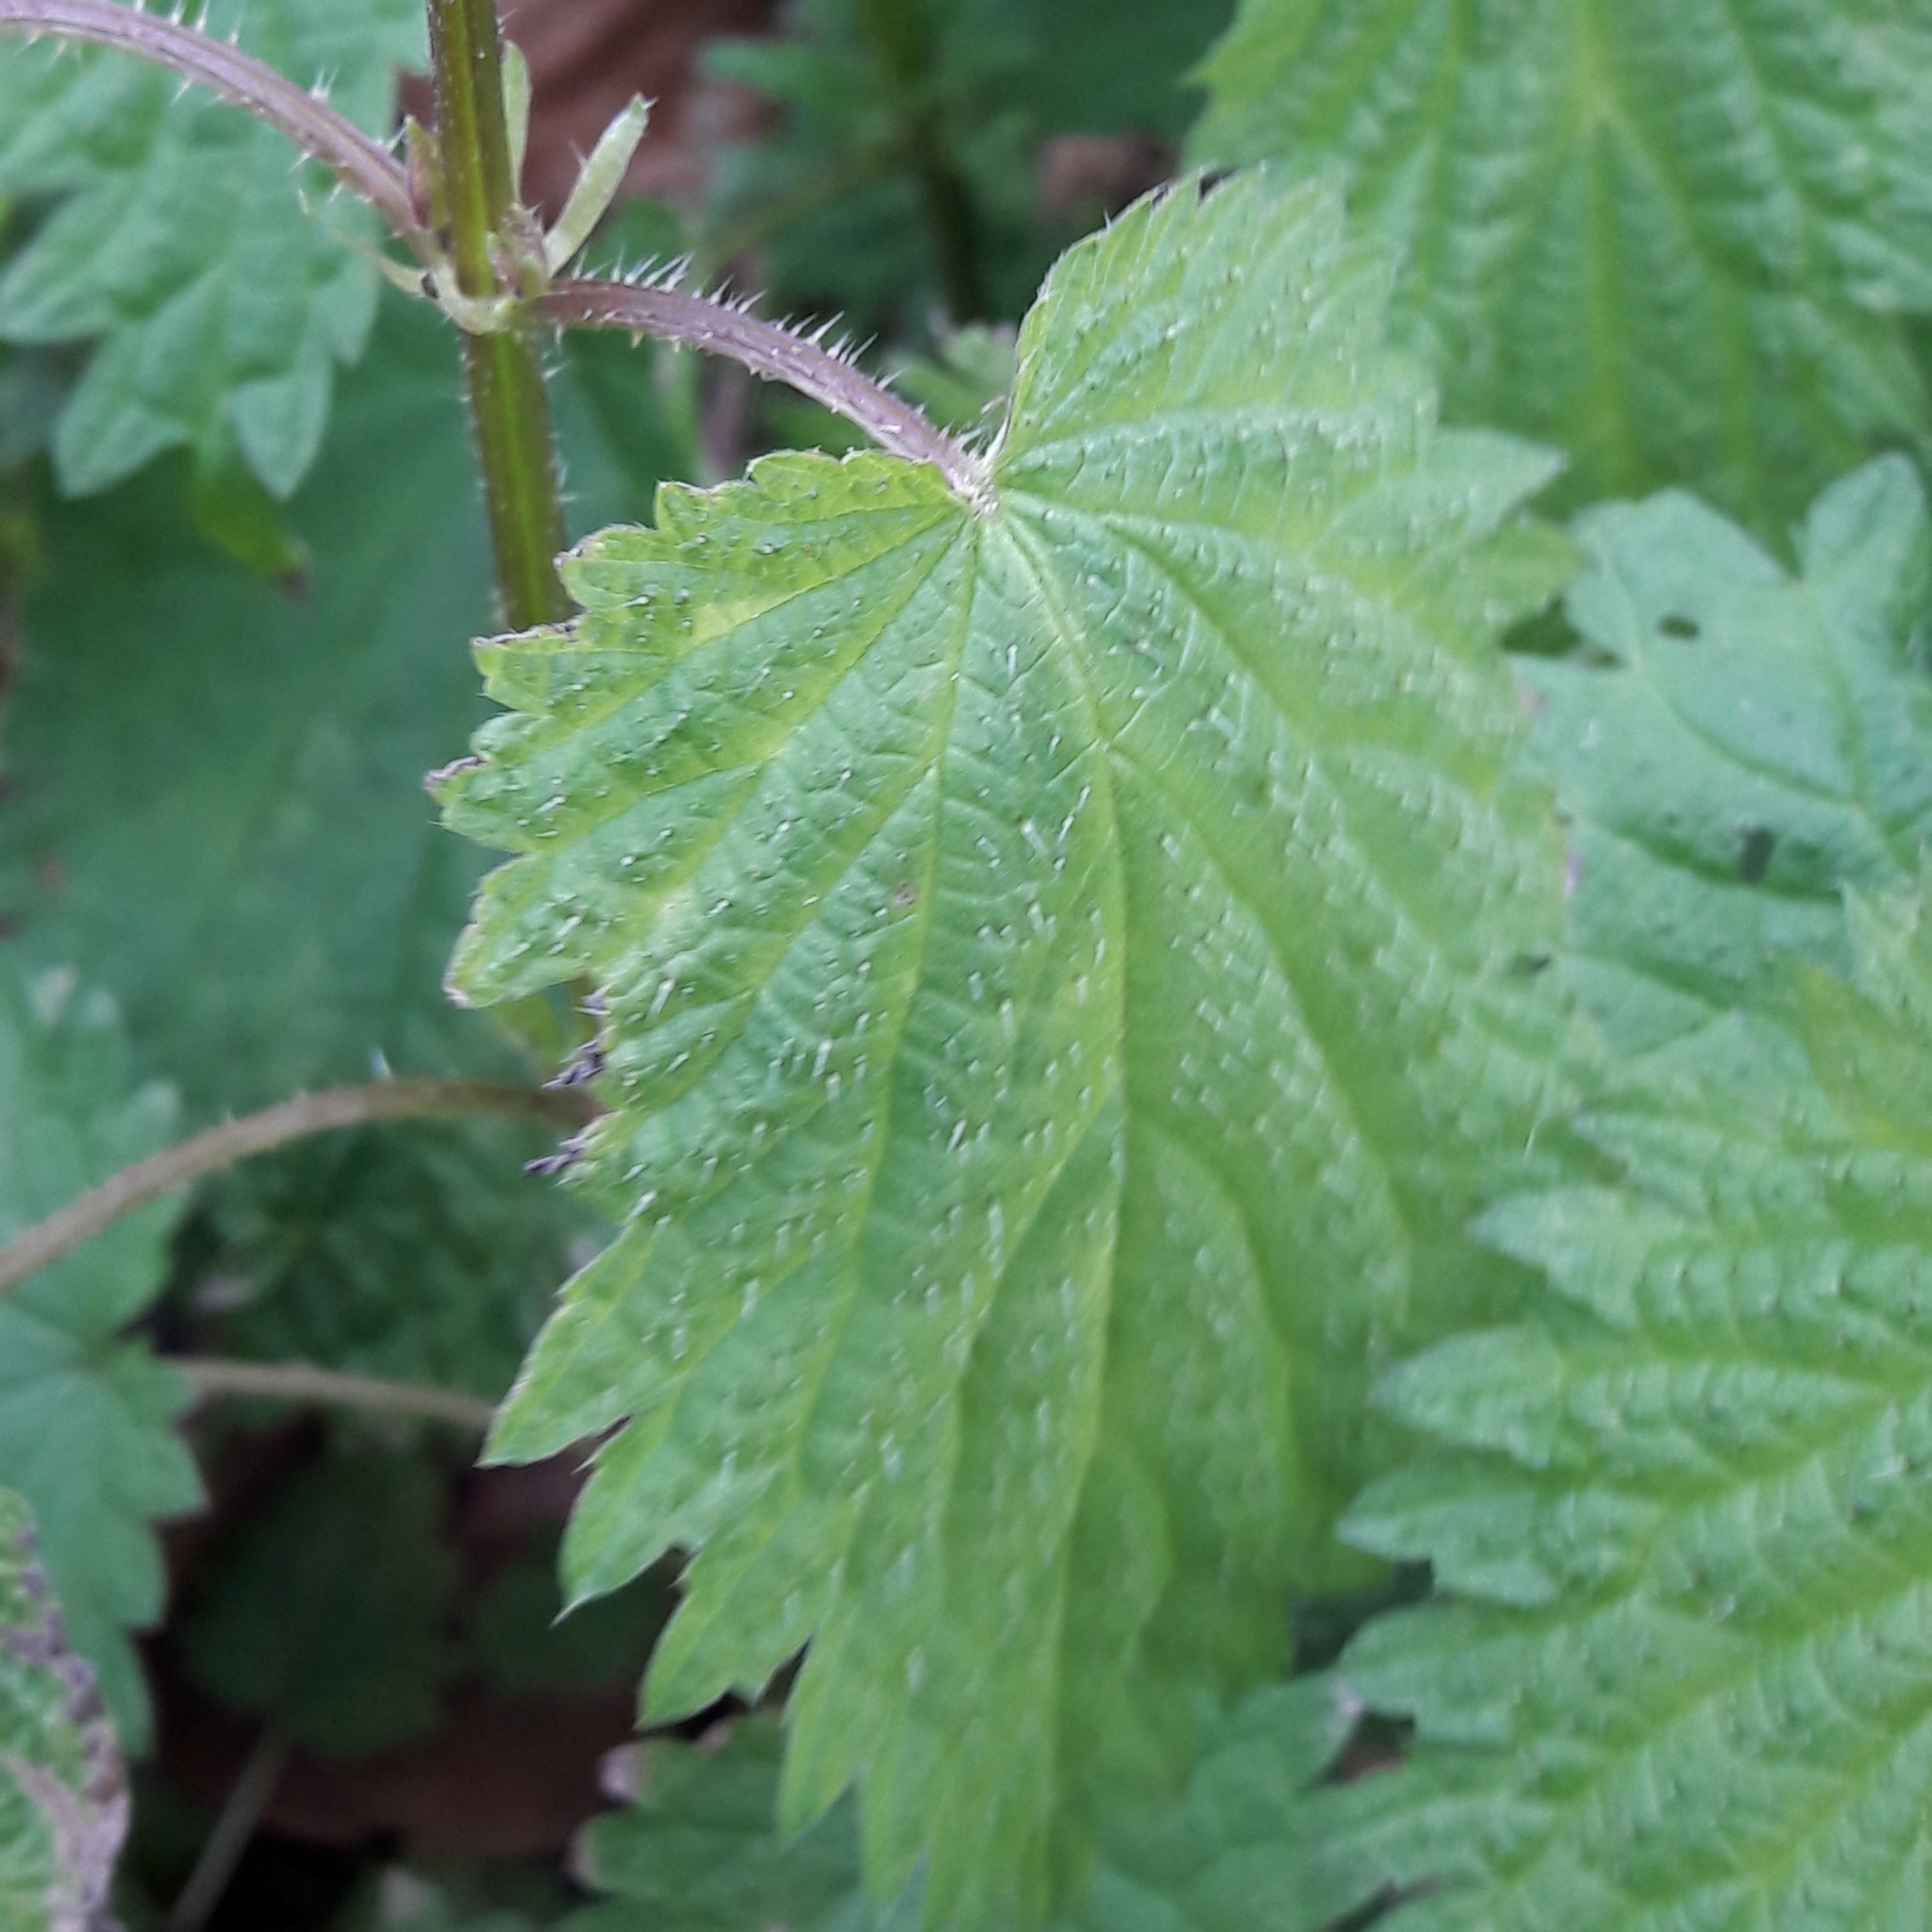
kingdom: Plantae
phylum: Tracheophyta
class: Magnoliopsida
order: Rosales
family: Urticaceae
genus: Urtica
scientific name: Urtica dioica
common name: Common nettle
